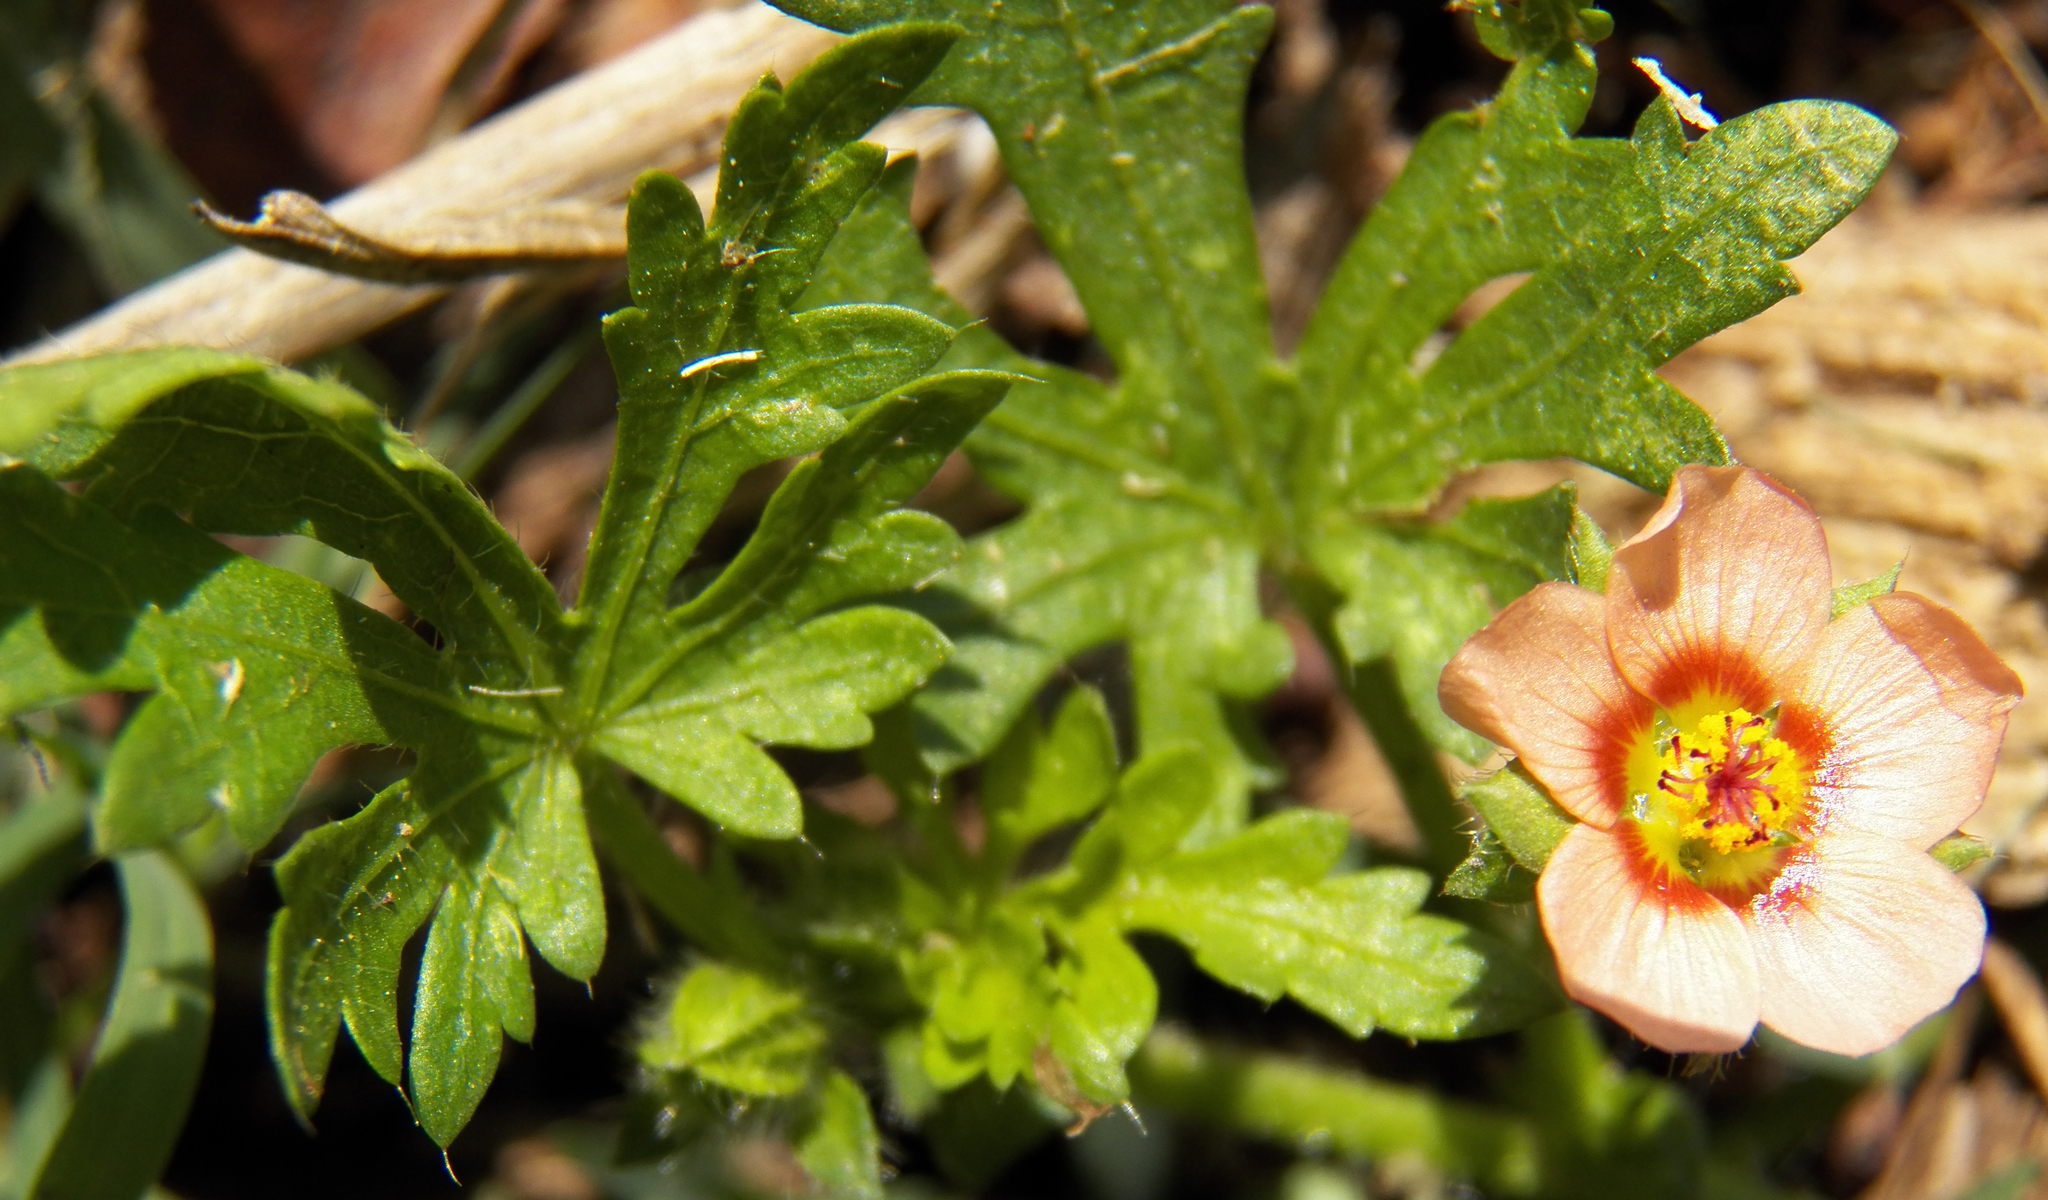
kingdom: Plantae
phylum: Tracheophyta
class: Magnoliopsida
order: Malvales
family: Malvaceae
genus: Modiola
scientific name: Modiola caroliniana
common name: Carolina bristlemallow
